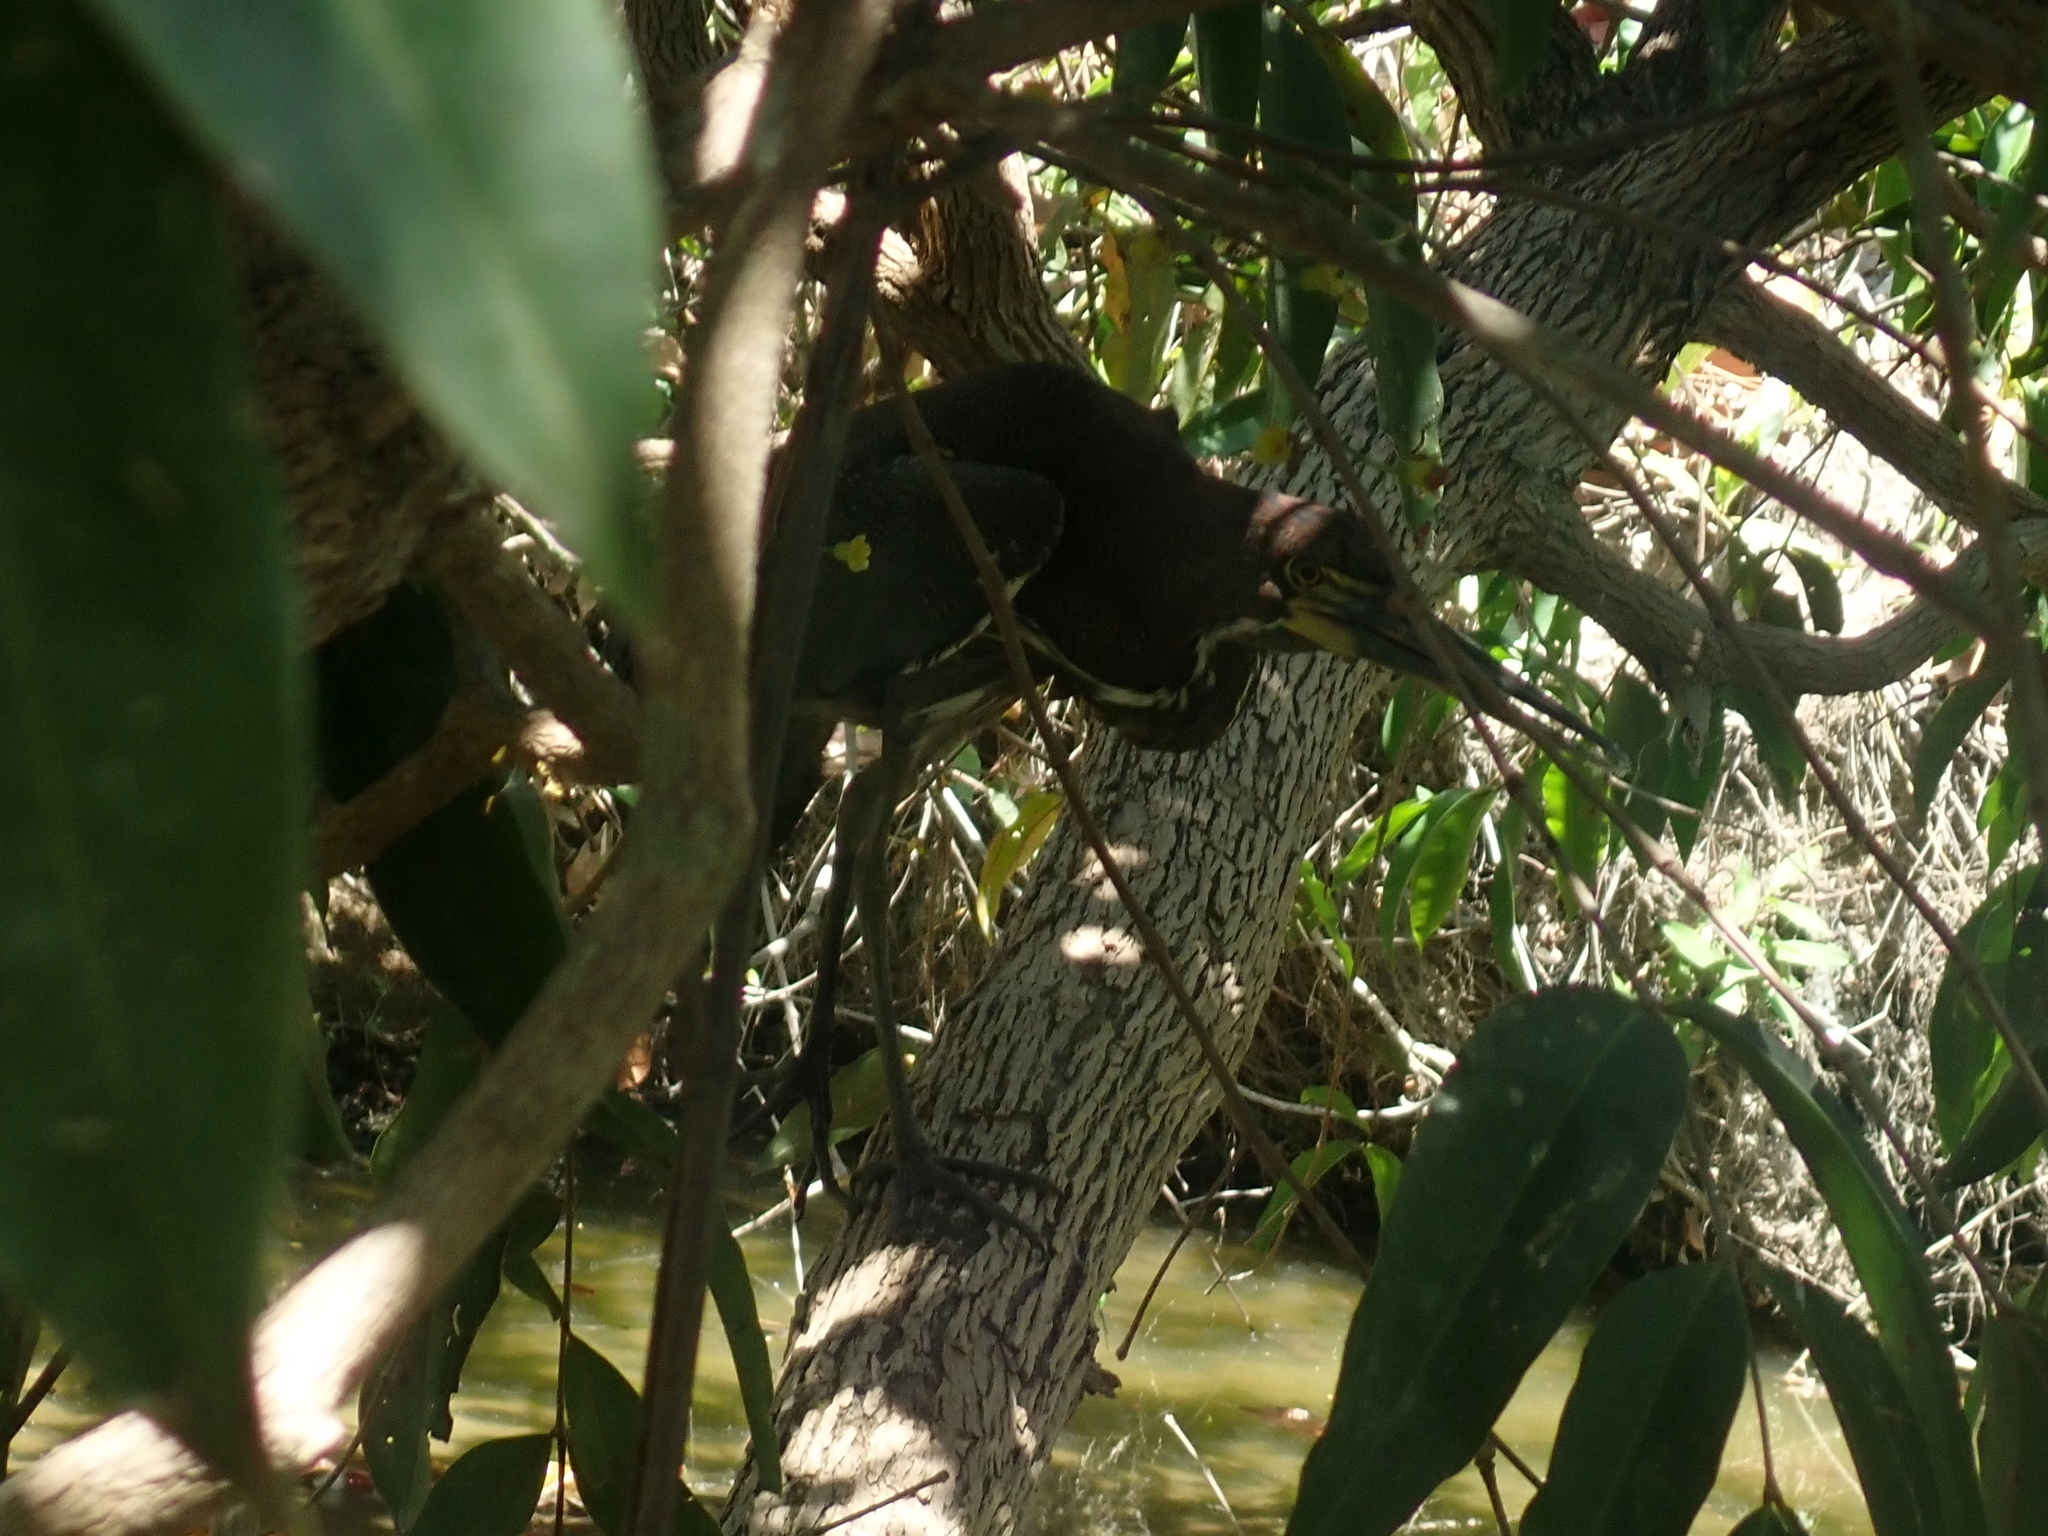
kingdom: Animalia
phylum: Chordata
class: Aves
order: Pelecaniformes
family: Ardeidae
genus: Tigrisoma
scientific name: Tigrisoma lineatum
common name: Rufescent tiger-heron
